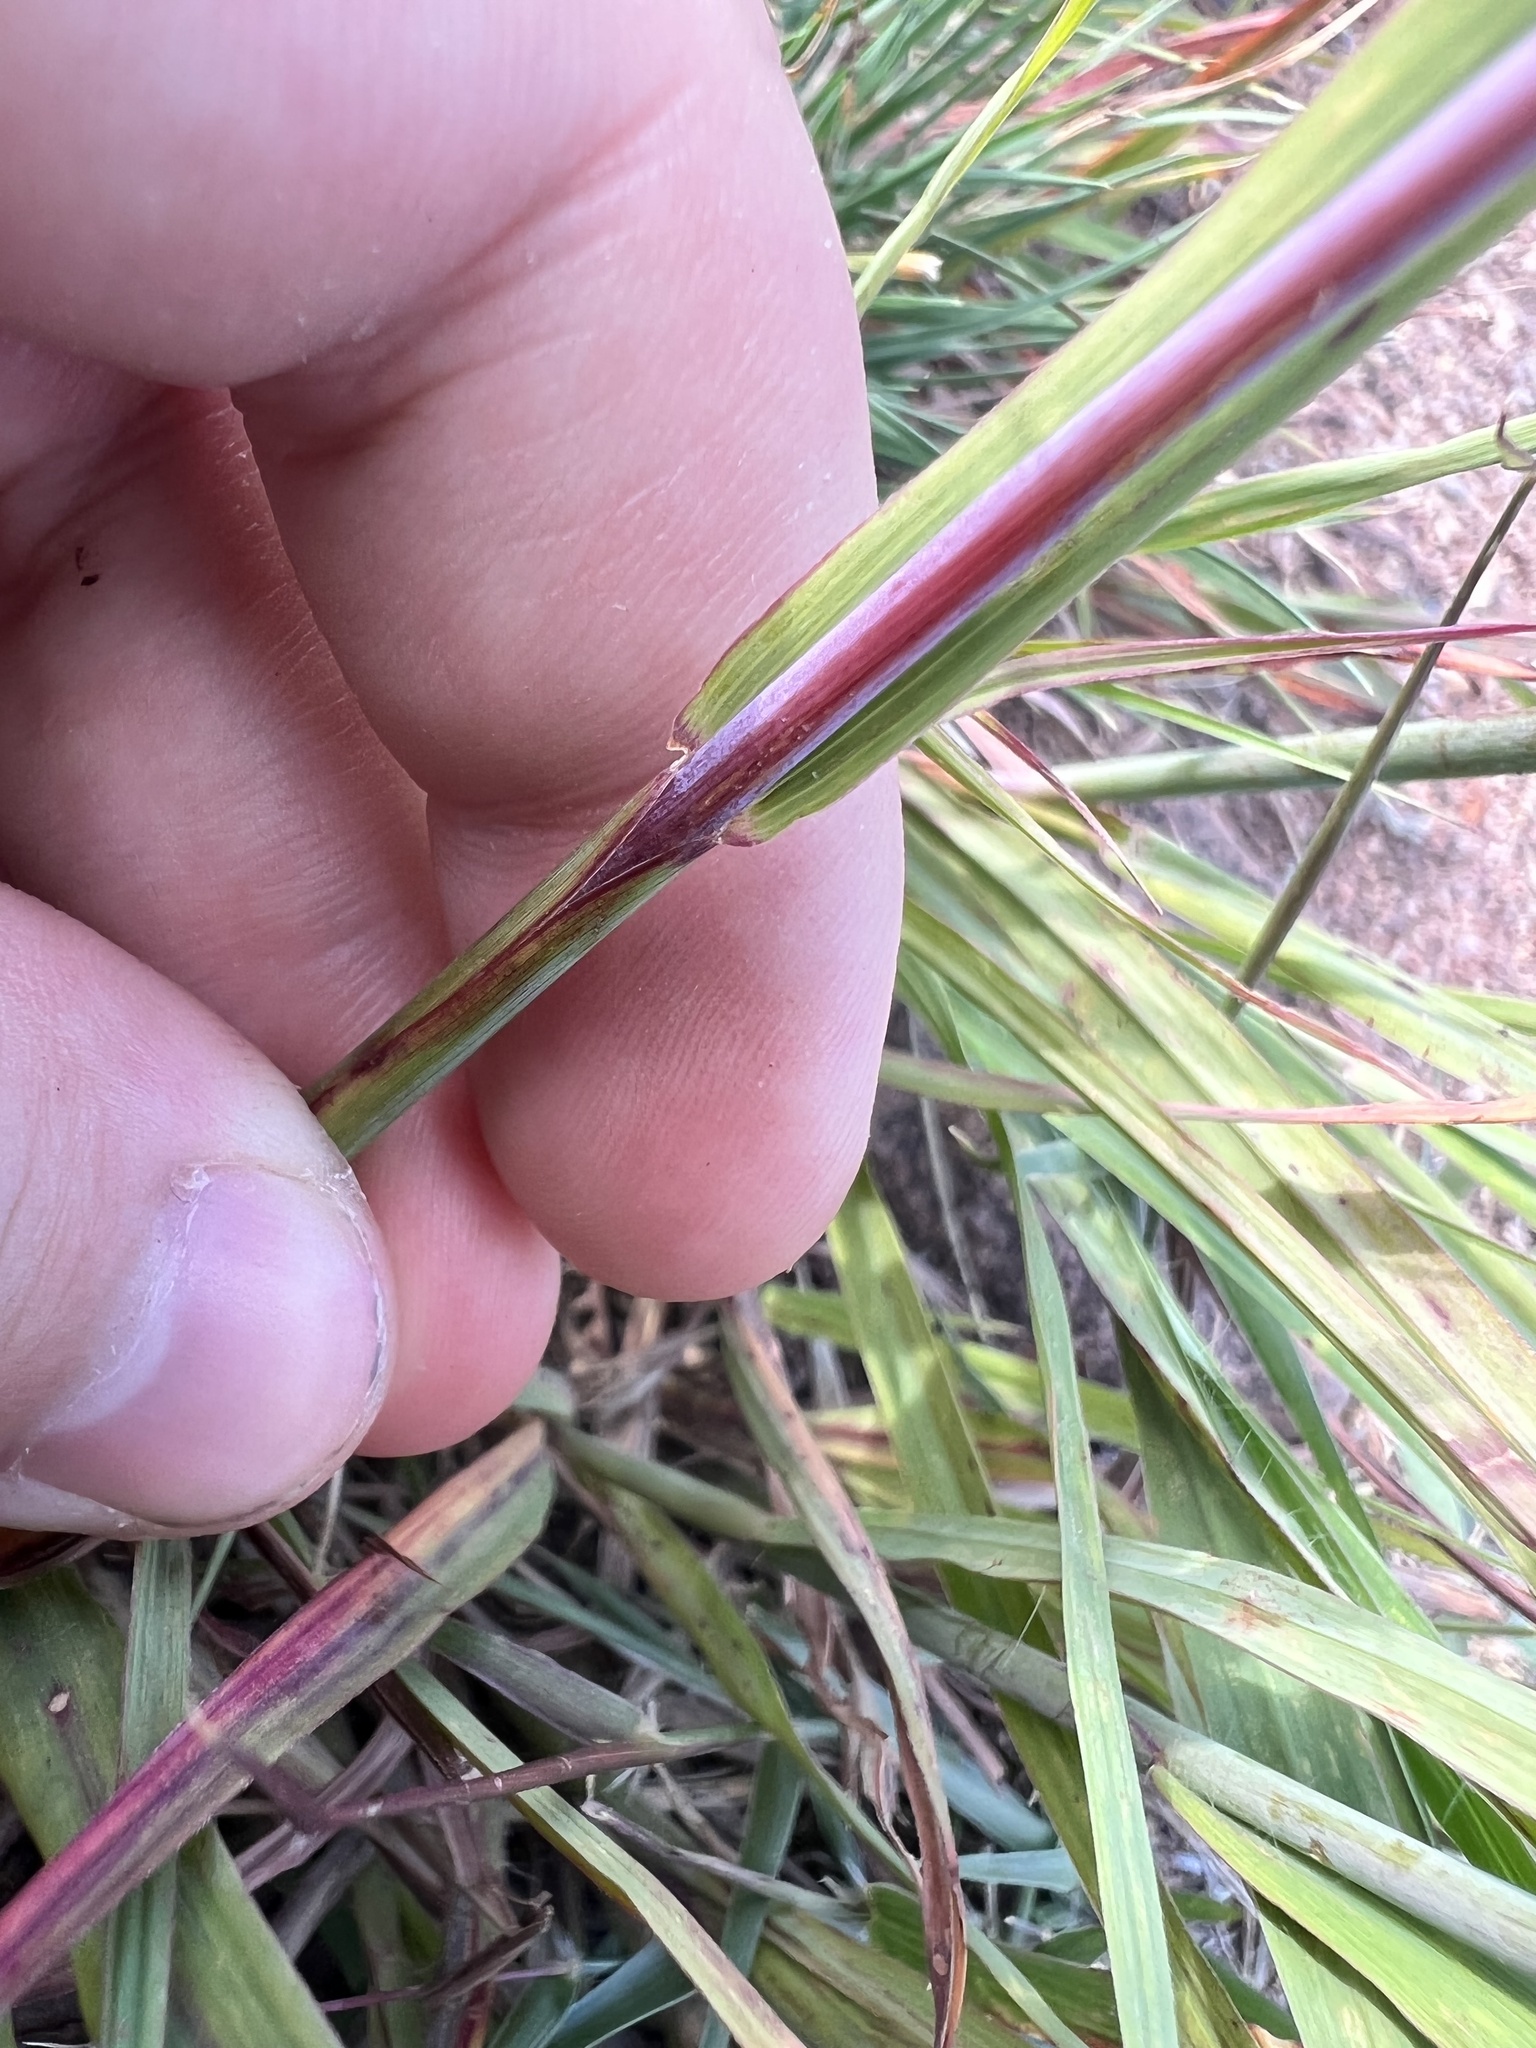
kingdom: Plantae
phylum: Tracheophyta
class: Liliopsida
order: Poales
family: Poaceae
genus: Andropogon
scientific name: Andropogon gerardi
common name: Big bluestem
